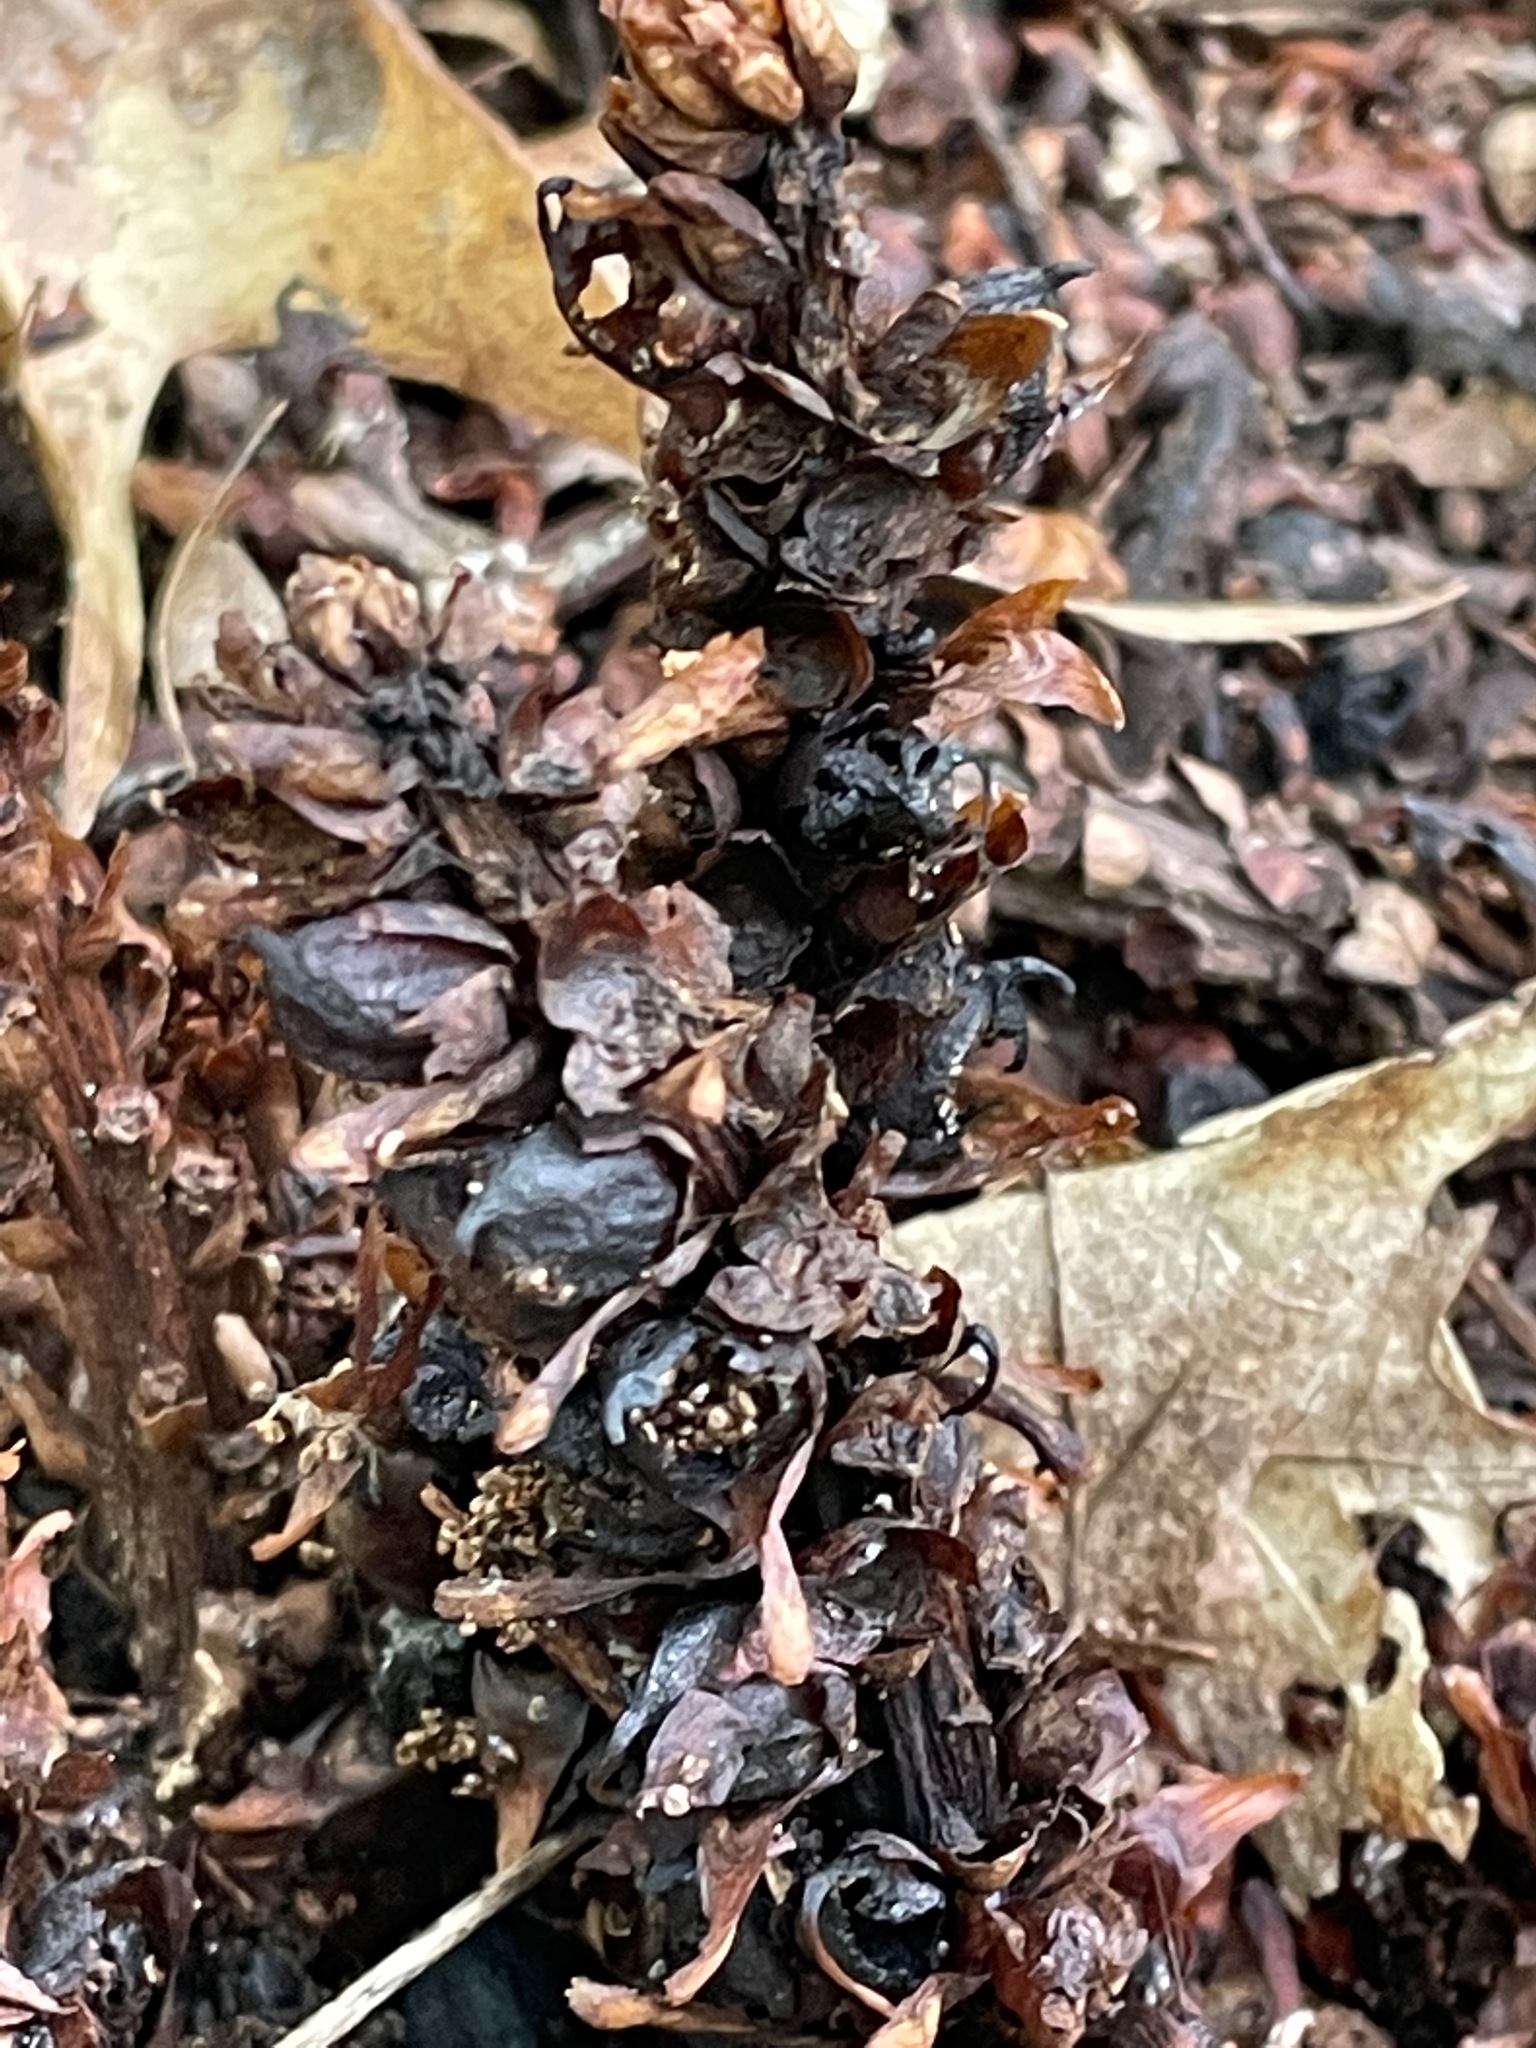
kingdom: Plantae
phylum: Tracheophyta
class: Magnoliopsida
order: Lamiales
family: Orobanchaceae
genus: Conopholis
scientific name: Conopholis americana
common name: American cancer-root
